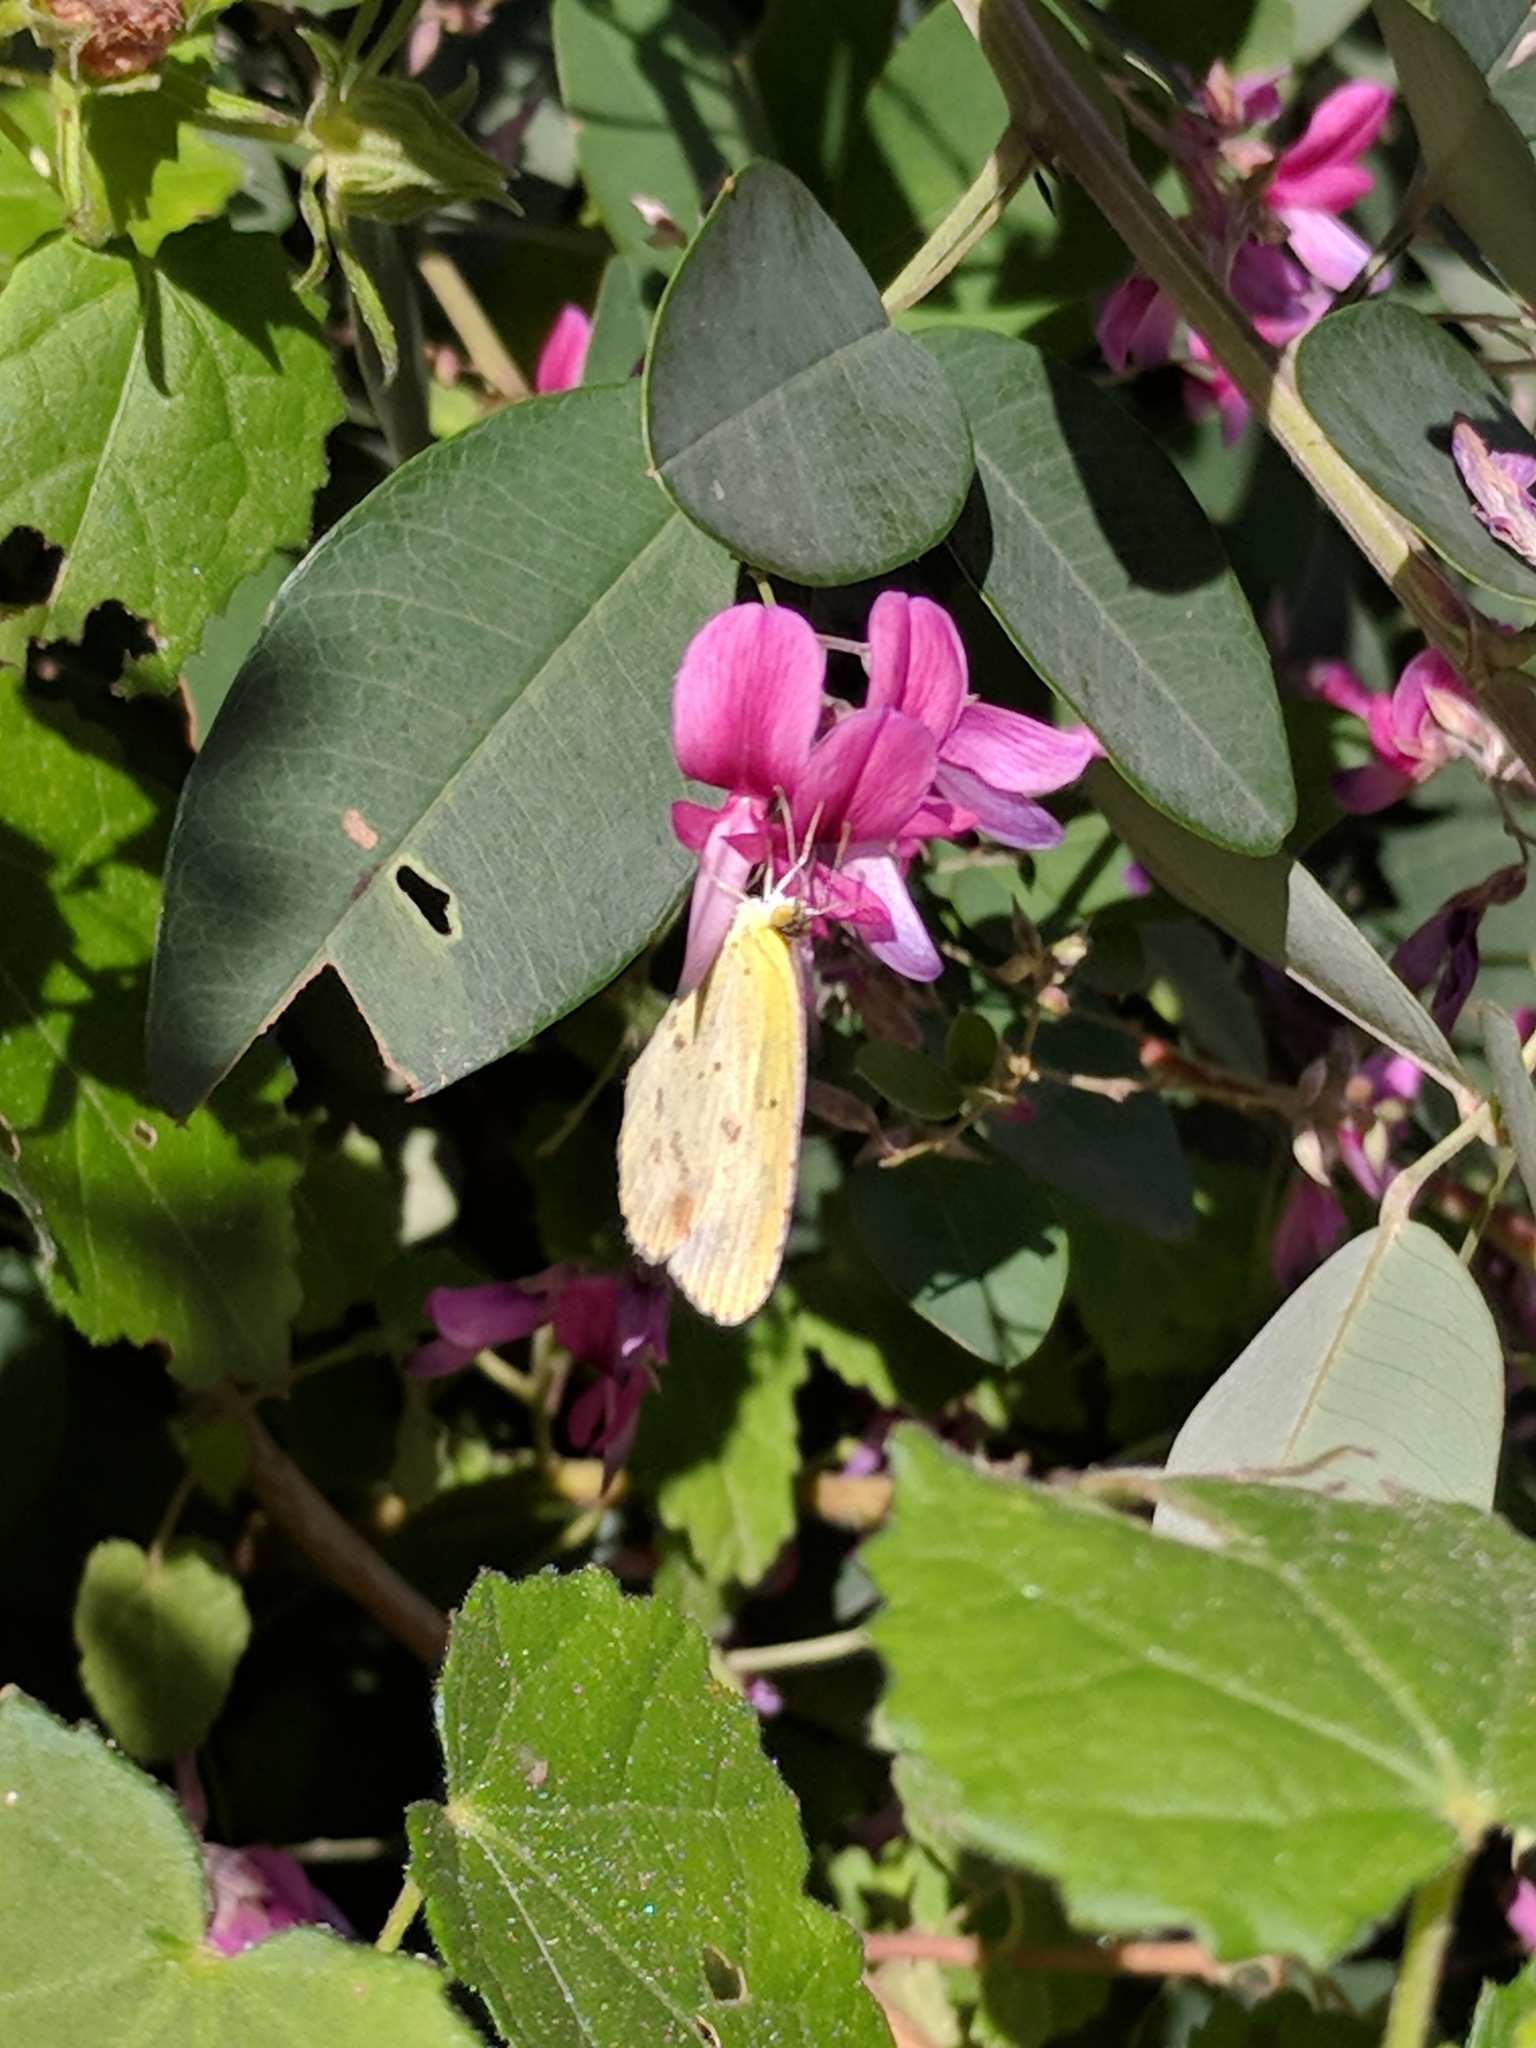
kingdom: Animalia
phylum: Arthropoda
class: Insecta
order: Lepidoptera
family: Pieridae
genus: Pyrisitia
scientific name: Pyrisitia lisa
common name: Little yellow
